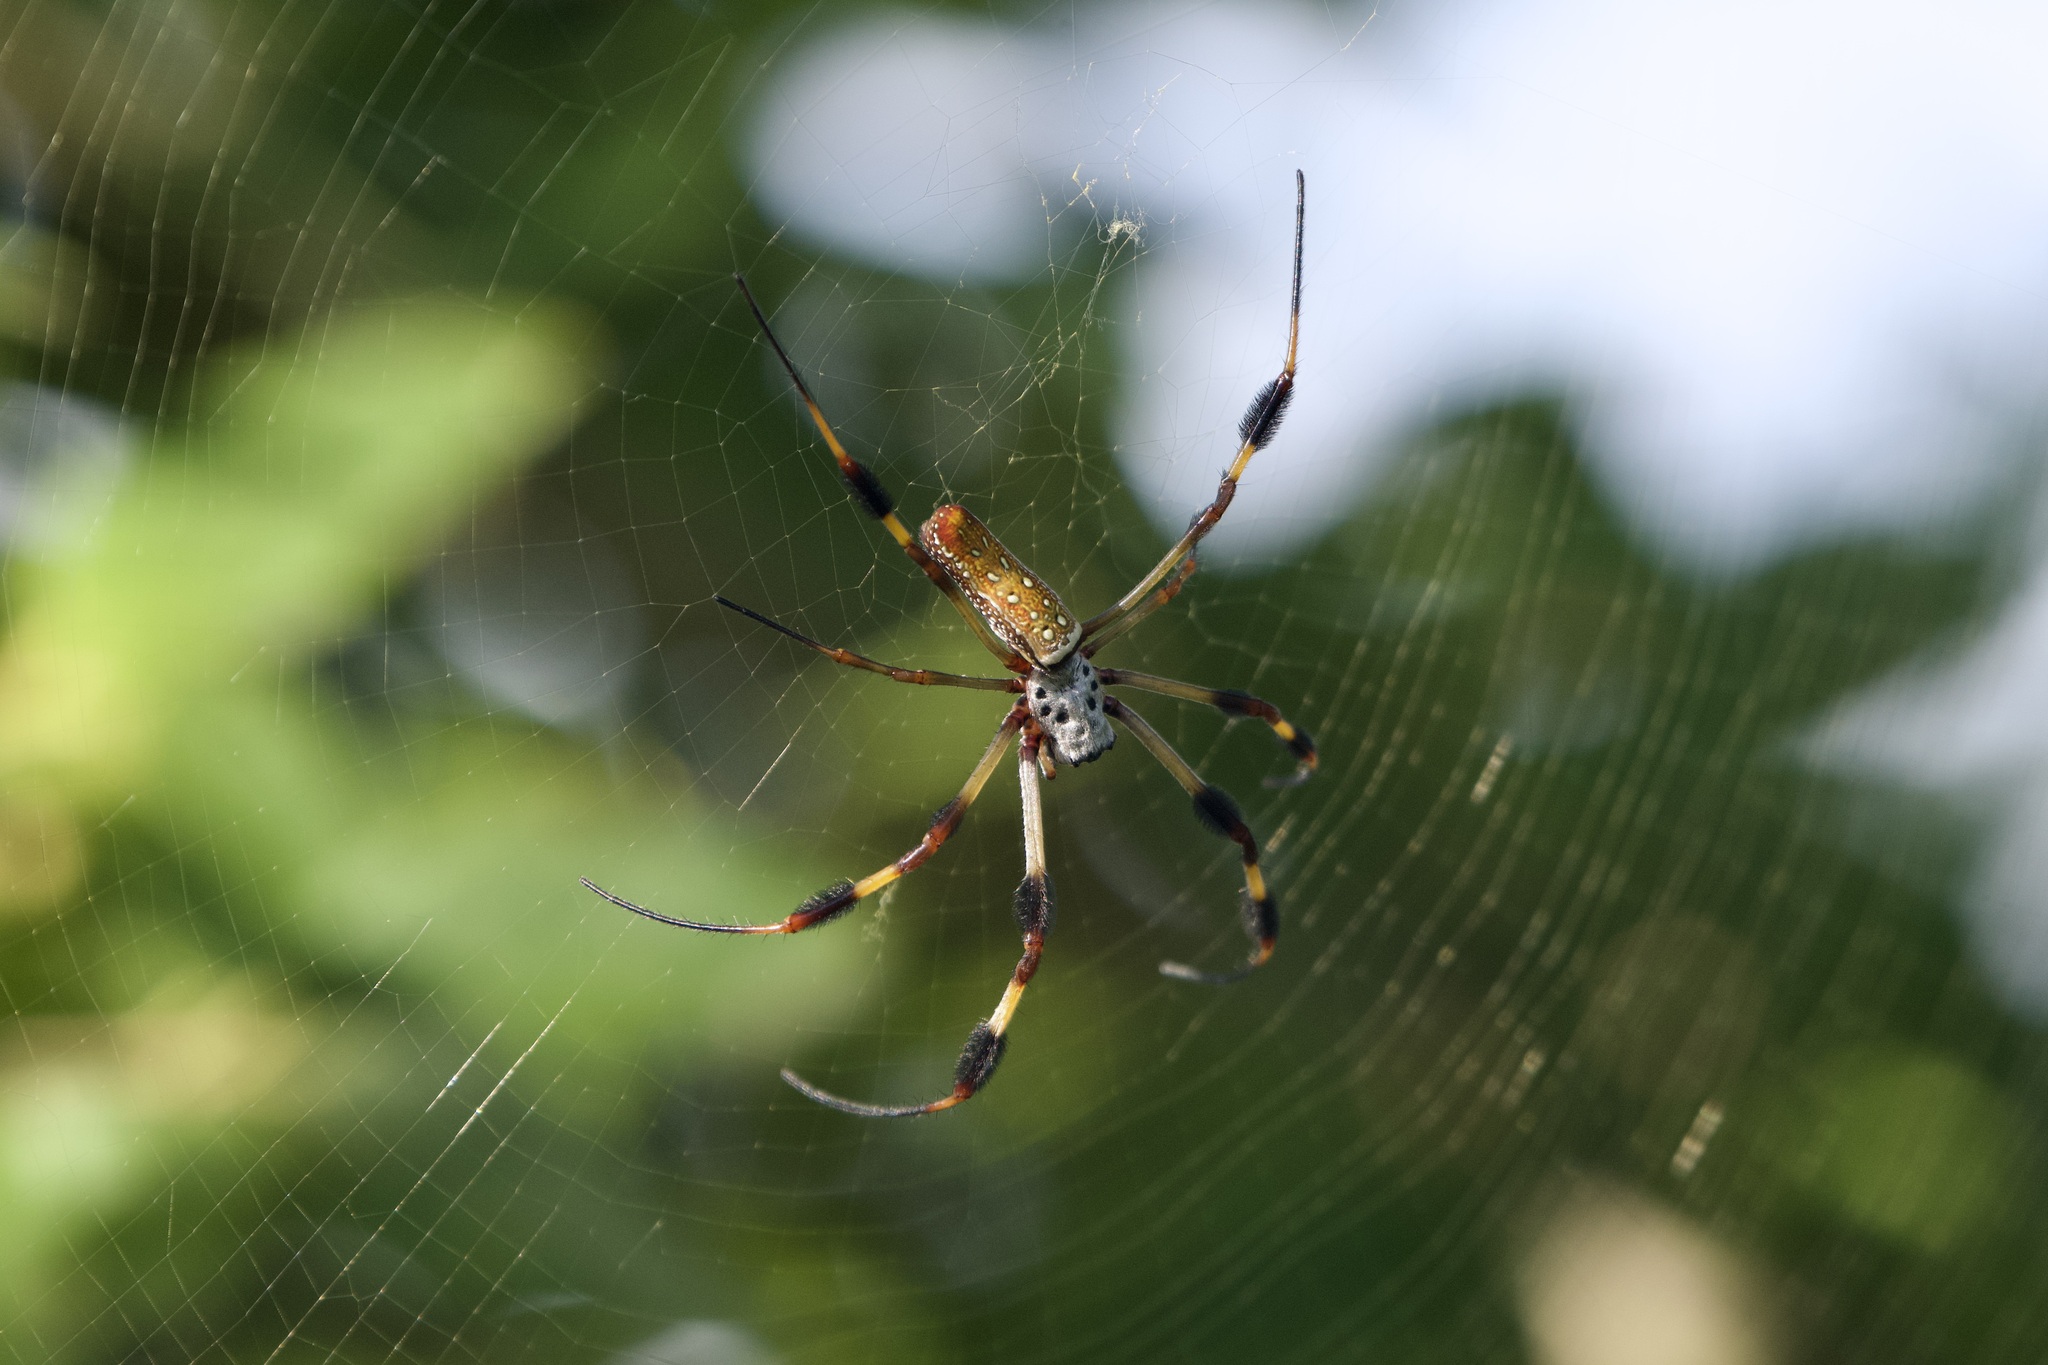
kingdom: Animalia
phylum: Arthropoda
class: Arachnida
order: Araneae
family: Araneidae
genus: Trichonephila
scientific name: Trichonephila clavipes
